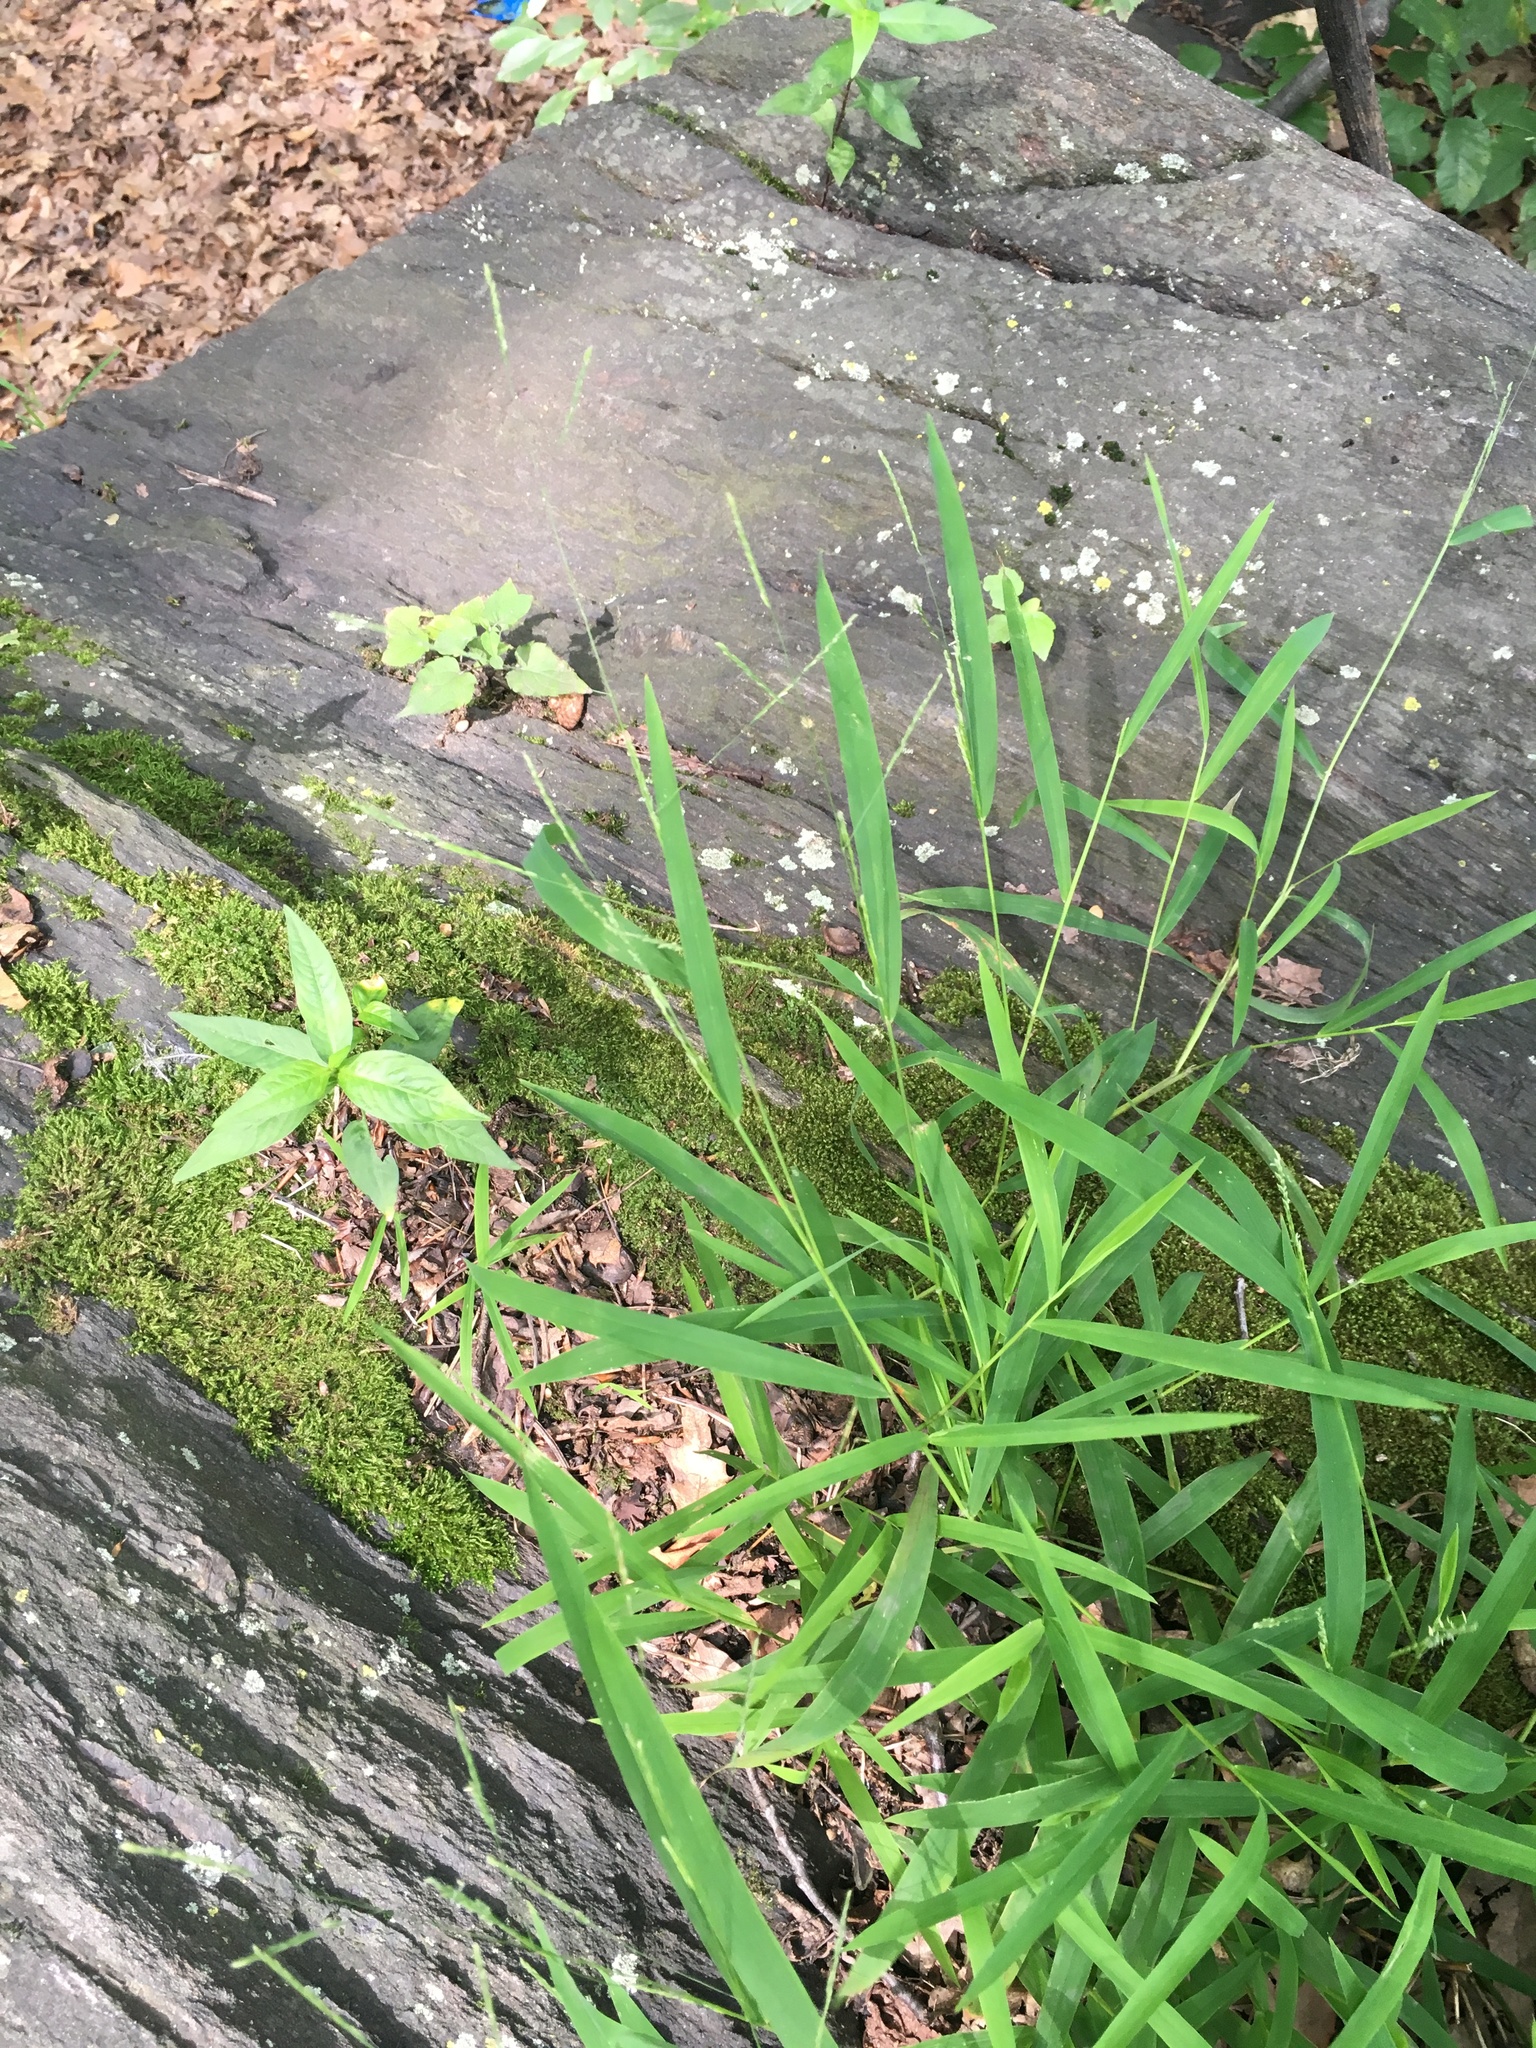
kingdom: Plantae
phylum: Tracheophyta
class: Liliopsida
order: Poales
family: Poaceae
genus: Leersia
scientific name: Leersia virginica
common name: White cutgrass
